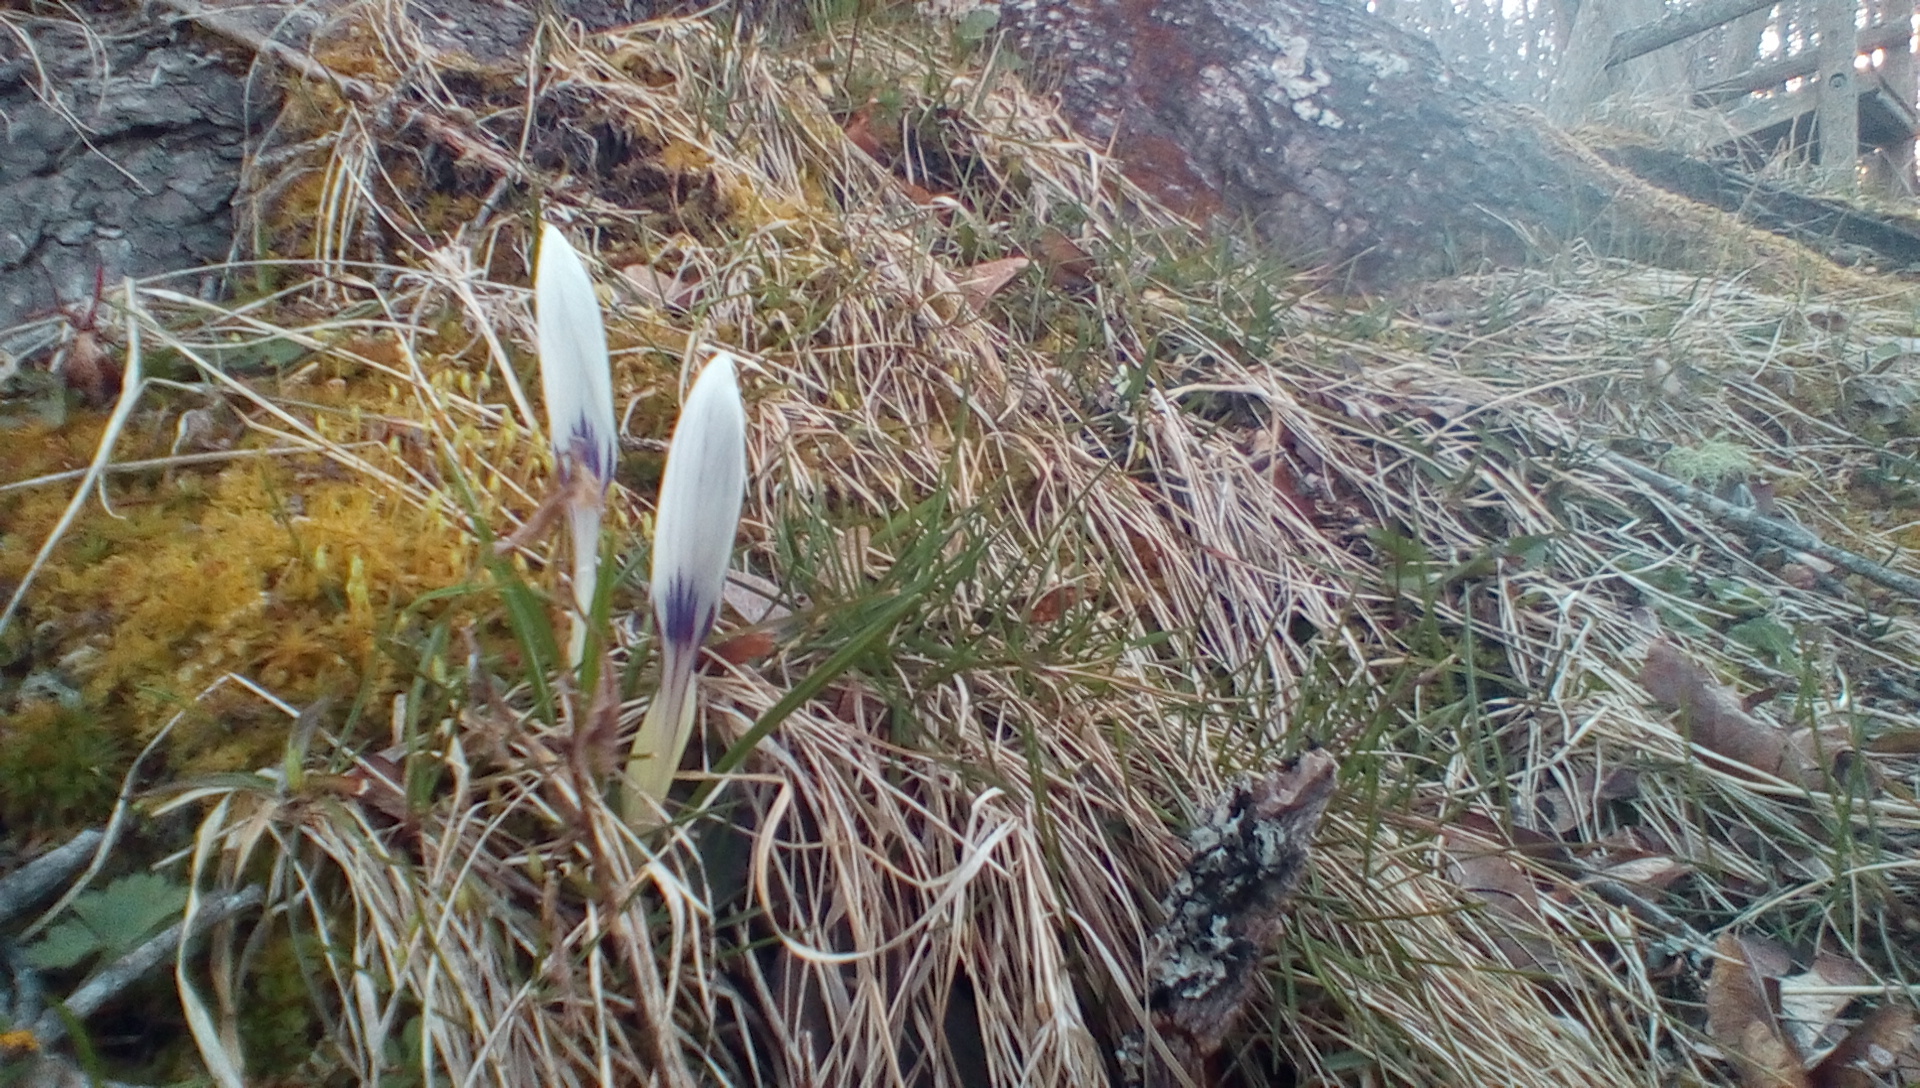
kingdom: Plantae
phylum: Tracheophyta
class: Liliopsida
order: Asparagales
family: Iridaceae
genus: Crocus
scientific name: Crocus
